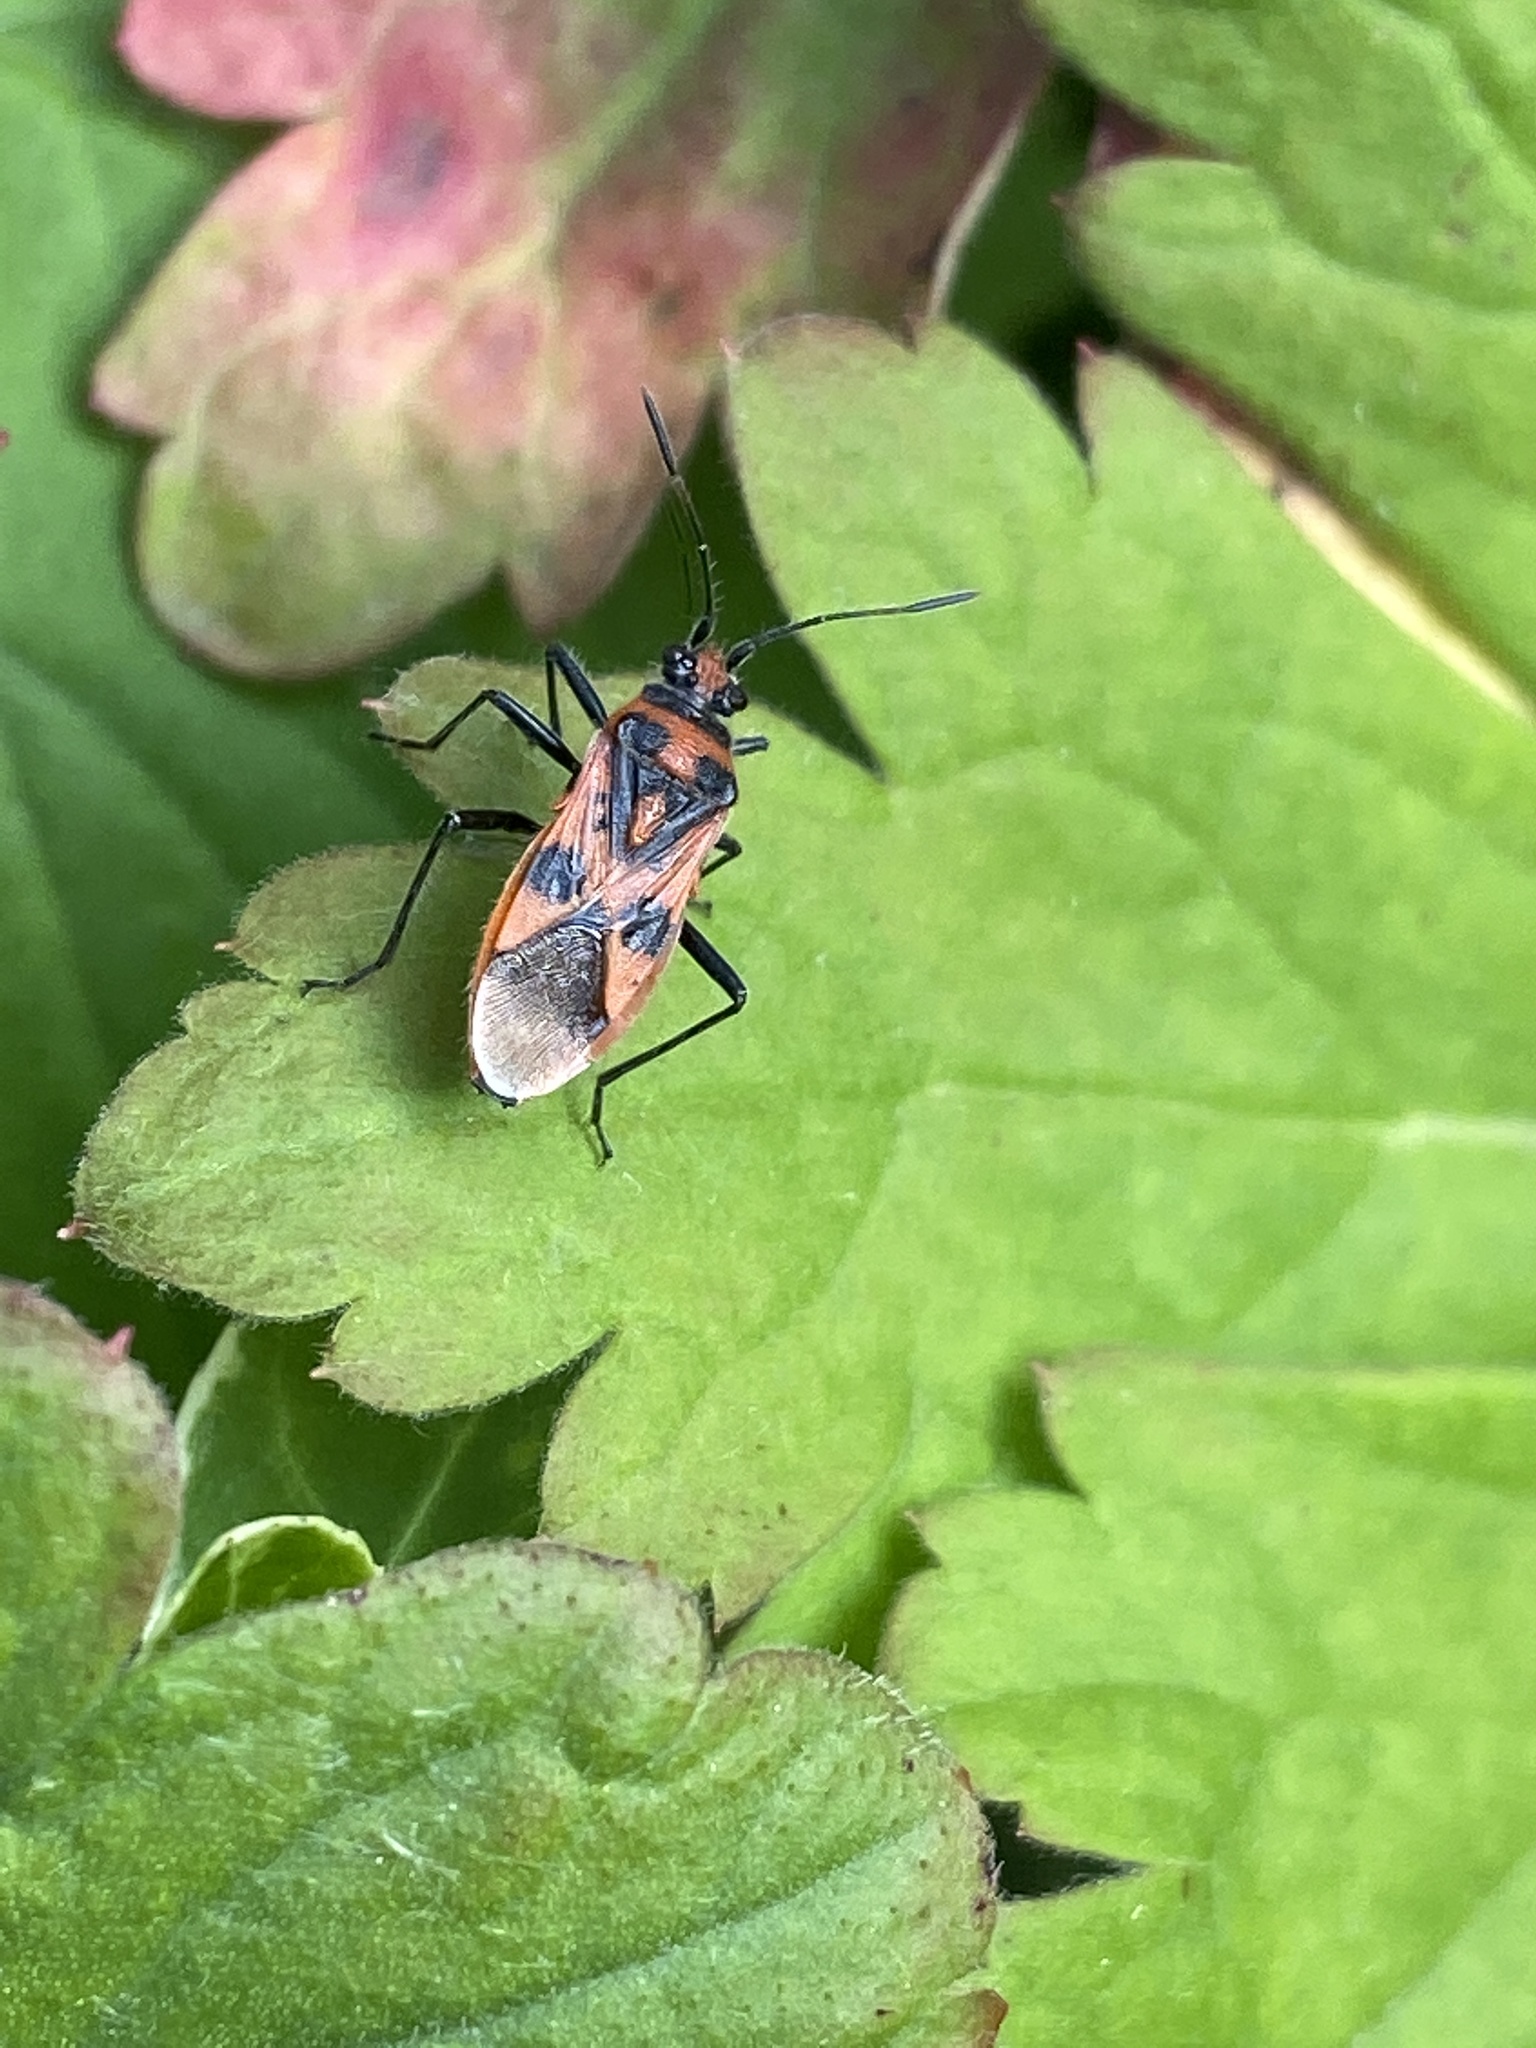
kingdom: Animalia
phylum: Arthropoda
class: Insecta
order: Hemiptera
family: Rhopalidae
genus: Corizus
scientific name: Corizus hyoscyami
